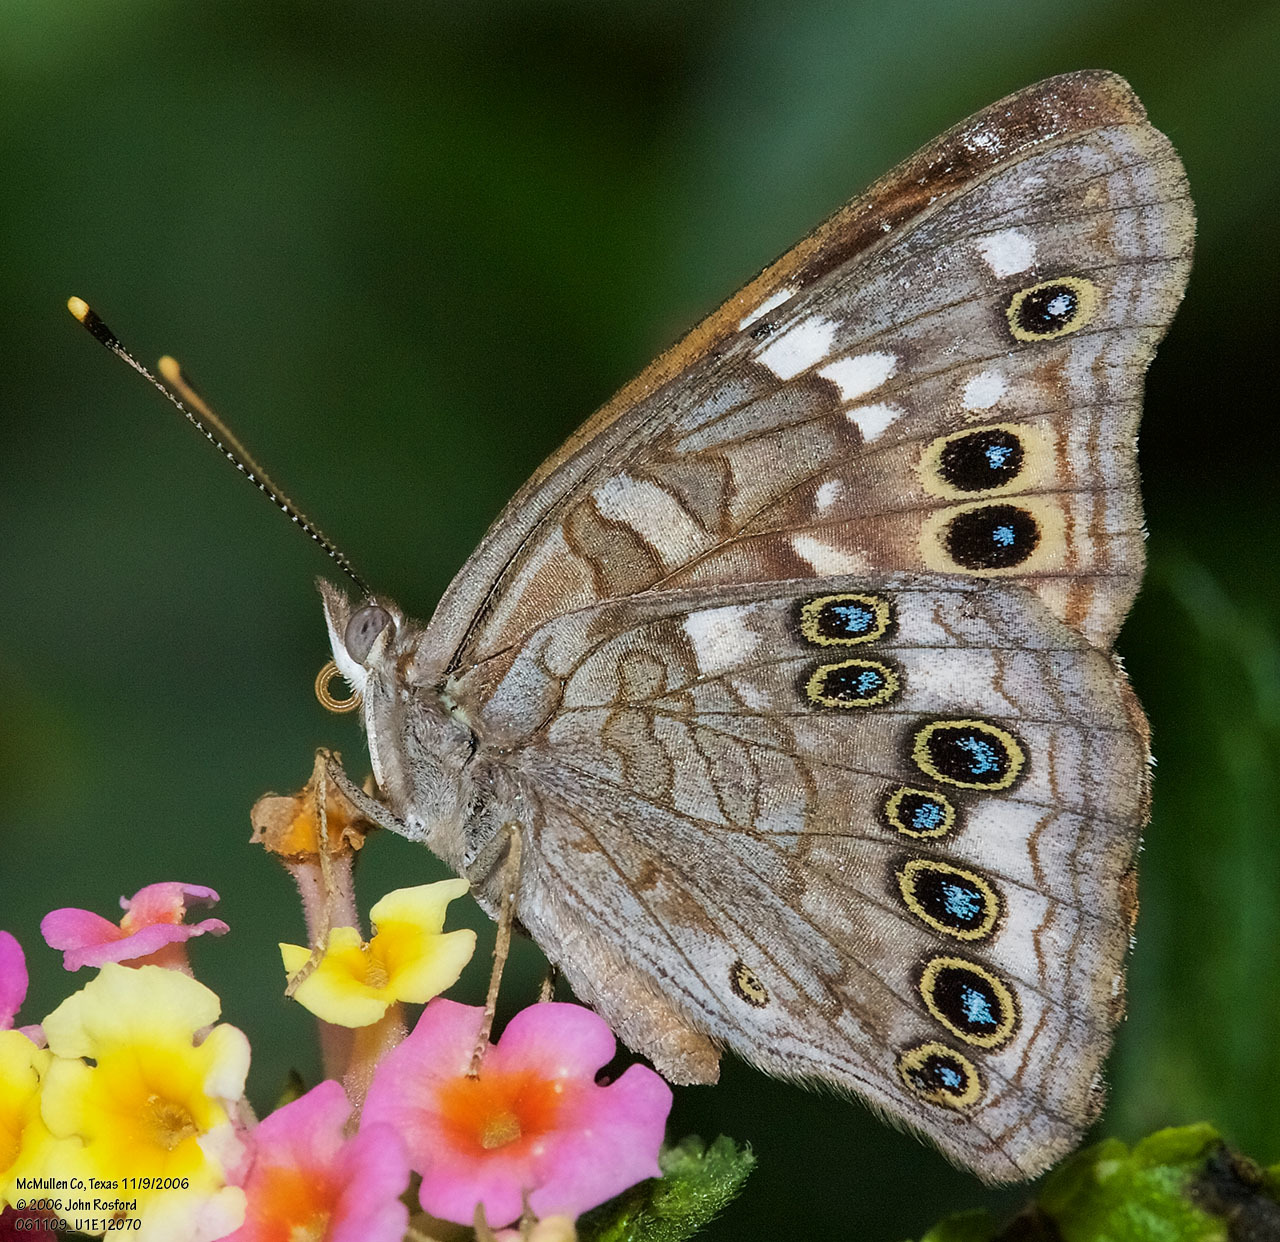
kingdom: Animalia
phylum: Arthropoda
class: Insecta
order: Lepidoptera
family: Nymphalidae
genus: Asterocampa
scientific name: Asterocampa leilia
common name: Empress leilia
